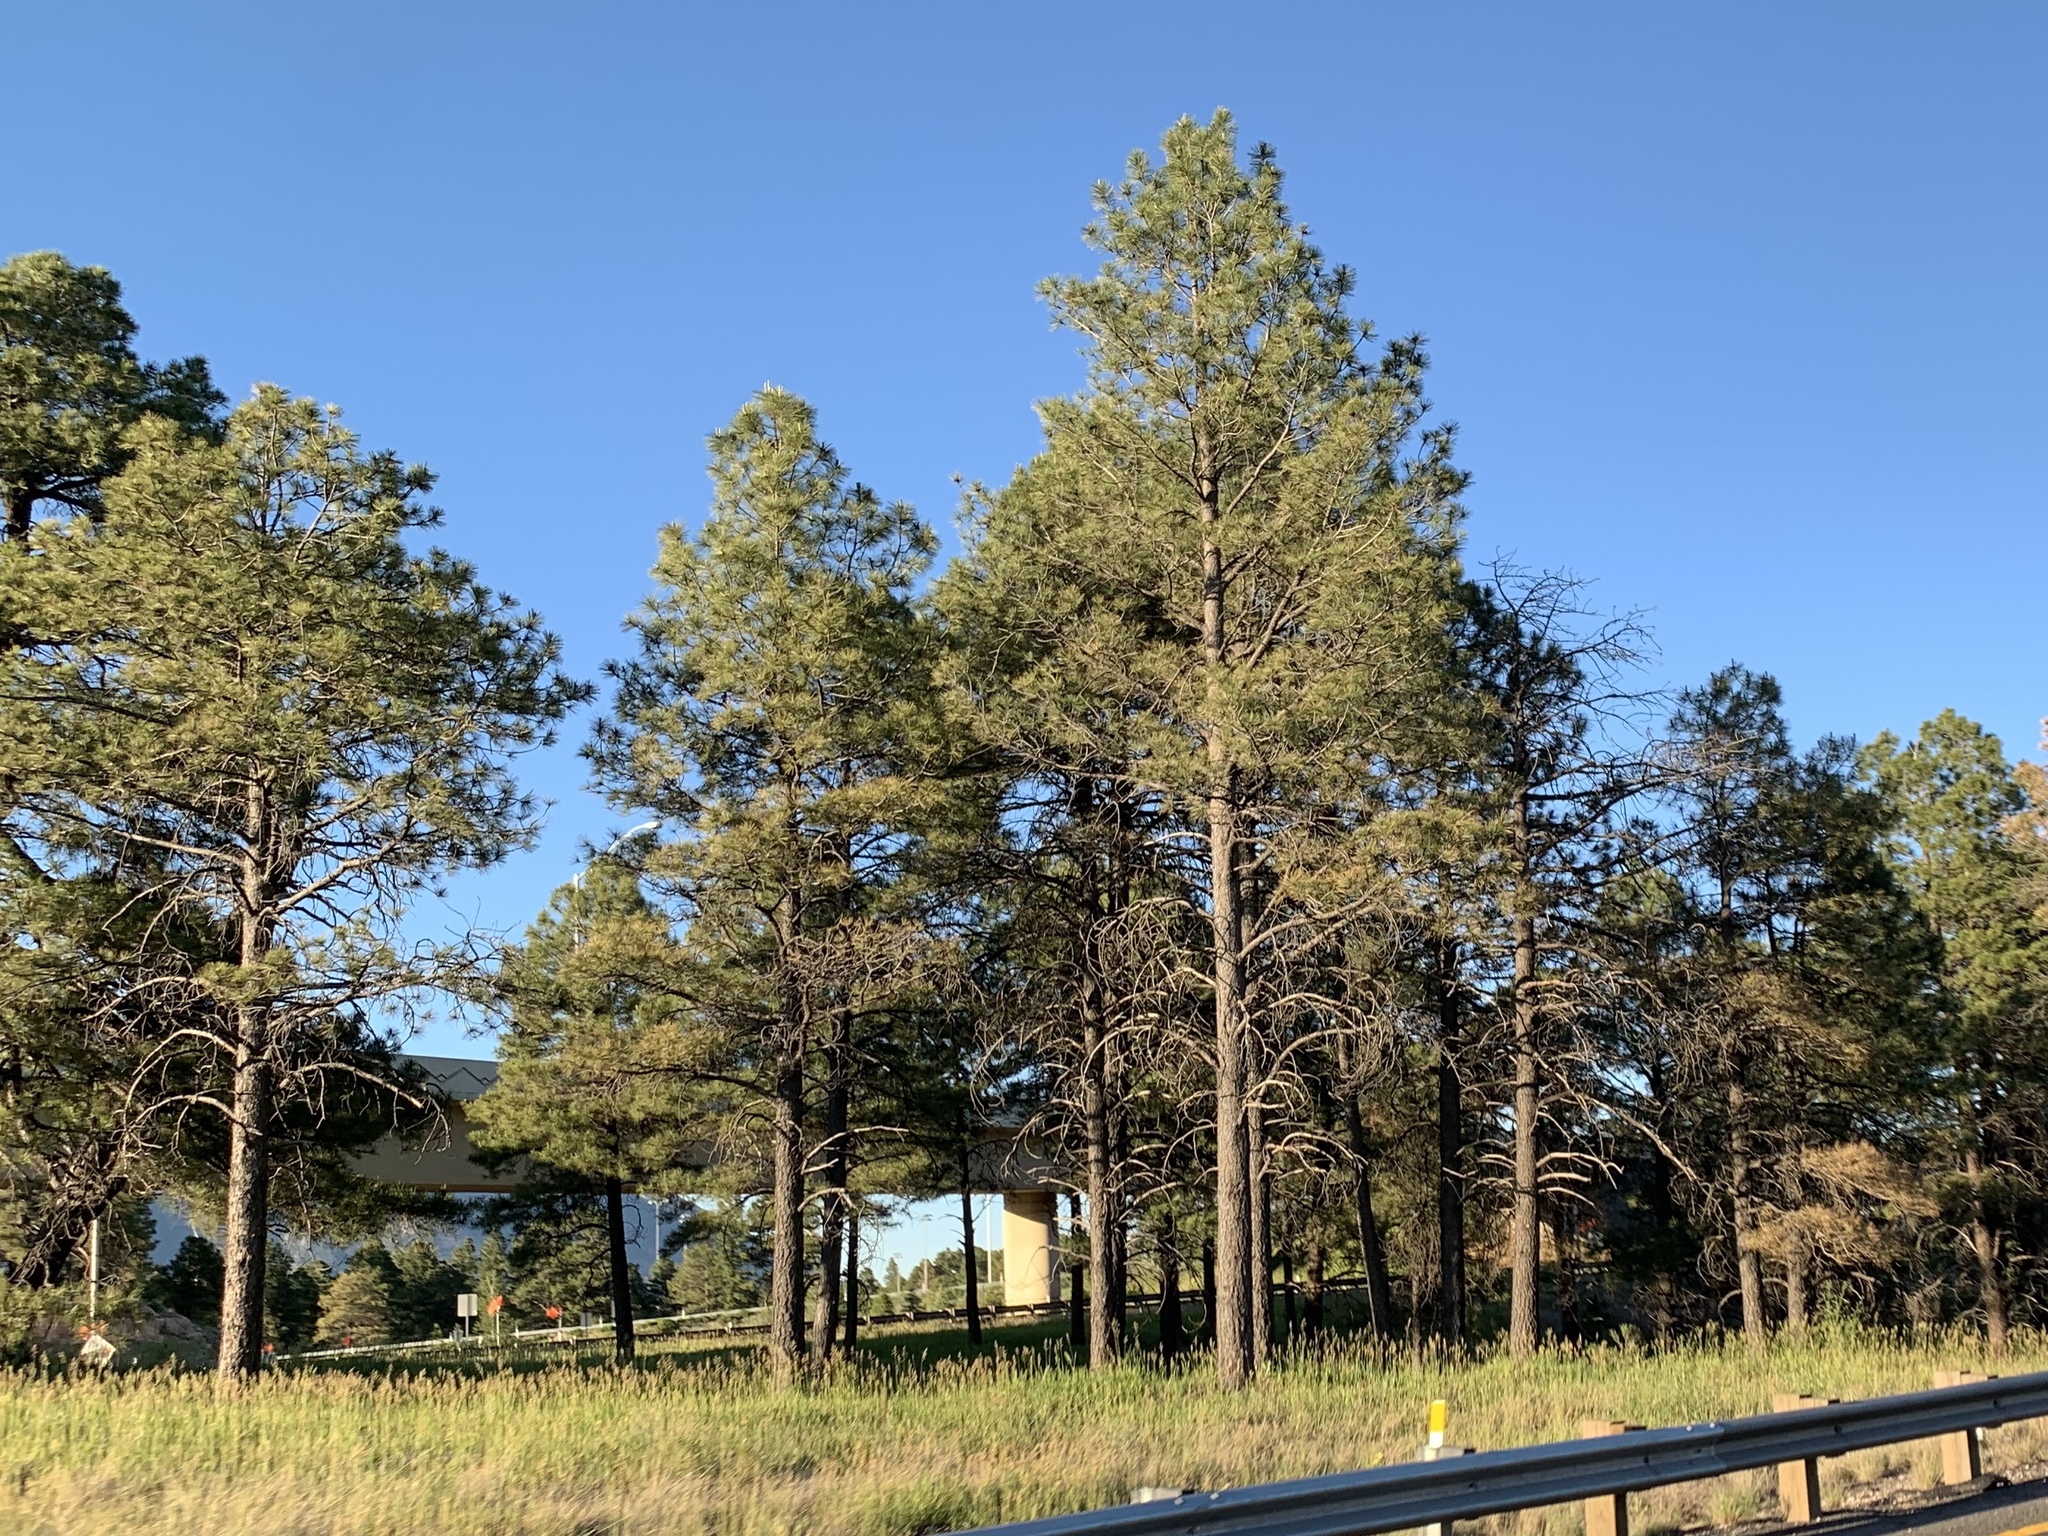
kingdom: Plantae
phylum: Tracheophyta
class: Pinopsida
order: Pinales
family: Pinaceae
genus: Pinus
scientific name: Pinus ponderosa
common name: Western yellow-pine
